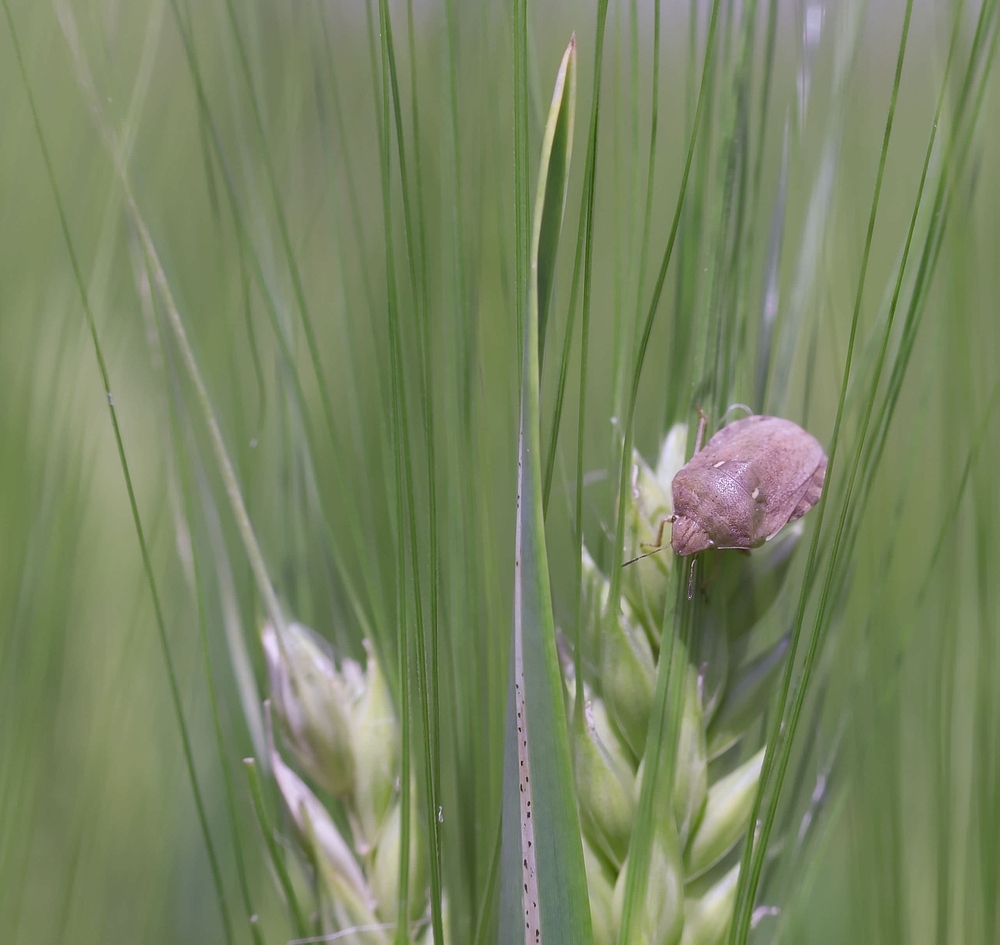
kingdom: Animalia
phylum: Arthropoda
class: Insecta
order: Hemiptera
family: Scutelleridae
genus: Eurygaster
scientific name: Eurygaster maura
